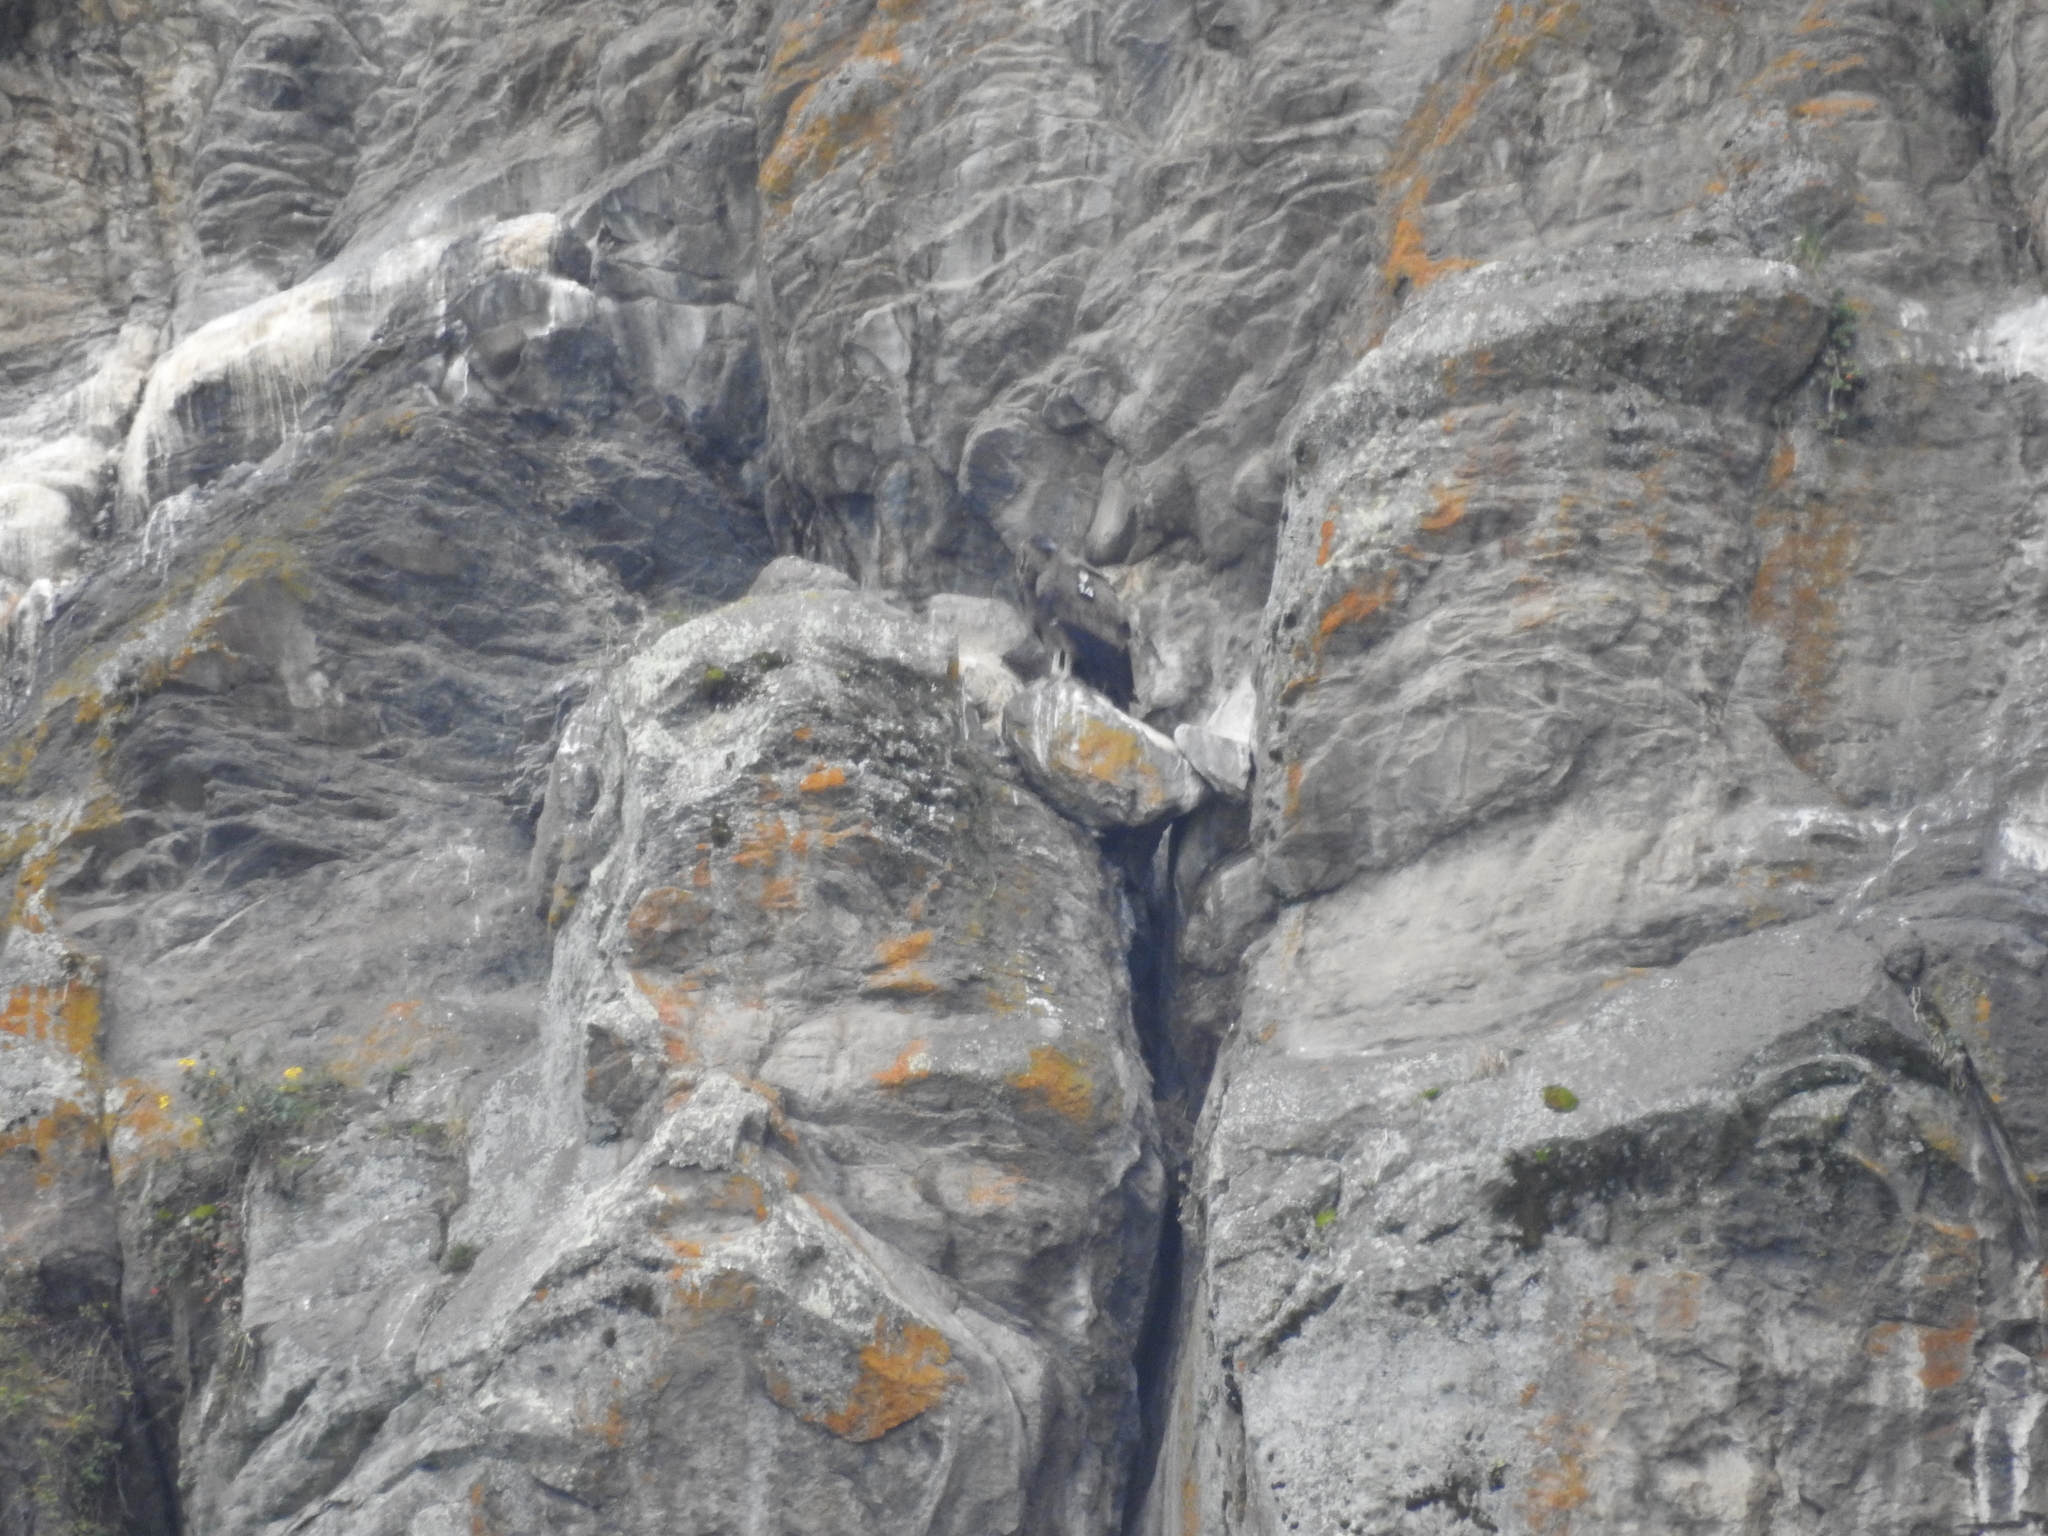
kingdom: Animalia
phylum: Chordata
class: Aves
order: Accipitriformes
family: Cathartidae
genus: Vultur
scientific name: Vultur gryphus
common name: Andean condor
